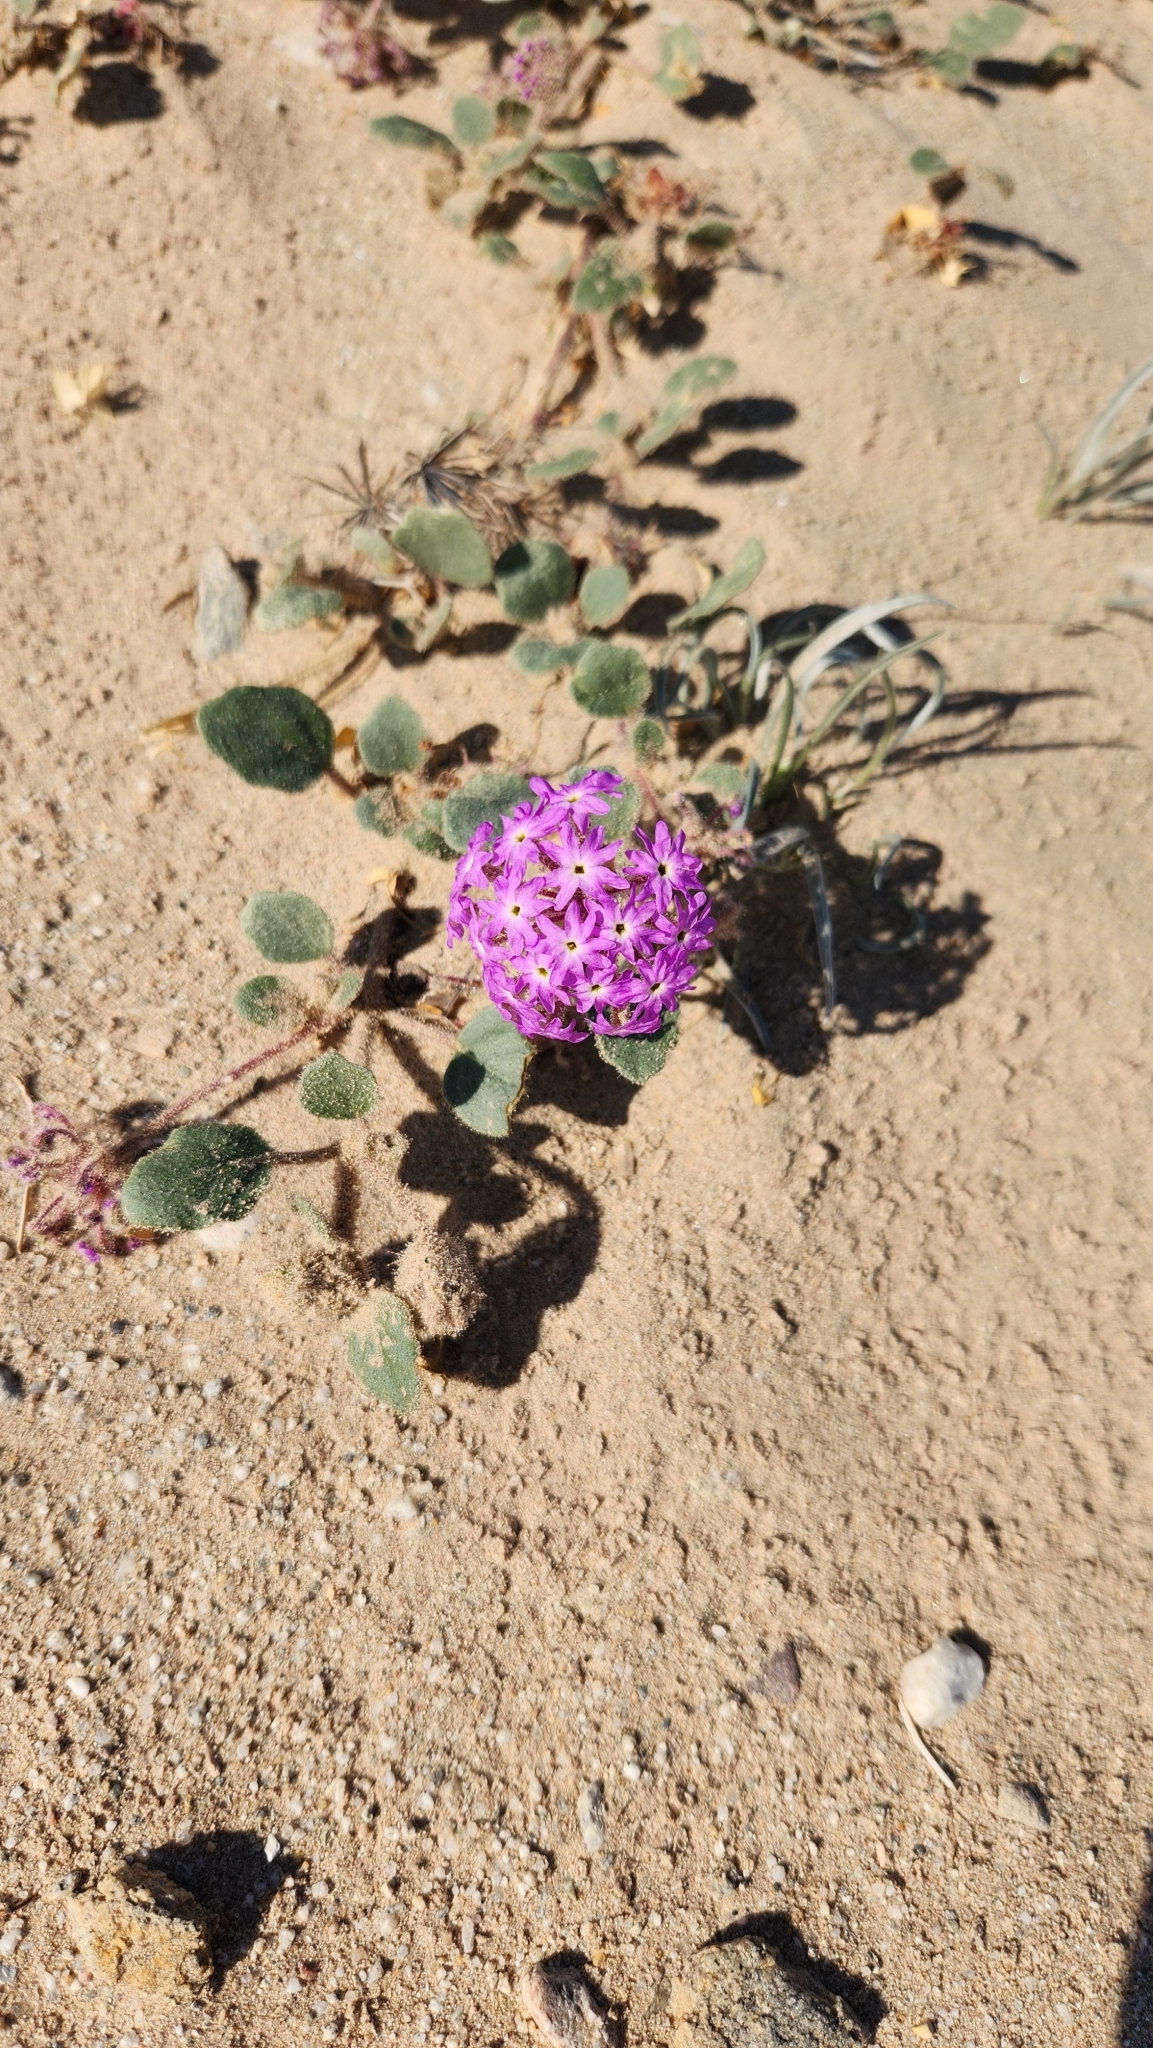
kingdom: Plantae
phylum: Tracheophyta
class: Magnoliopsida
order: Caryophyllales
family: Nyctaginaceae
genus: Abronia
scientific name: Abronia villosa
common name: Desert sand-verbena
